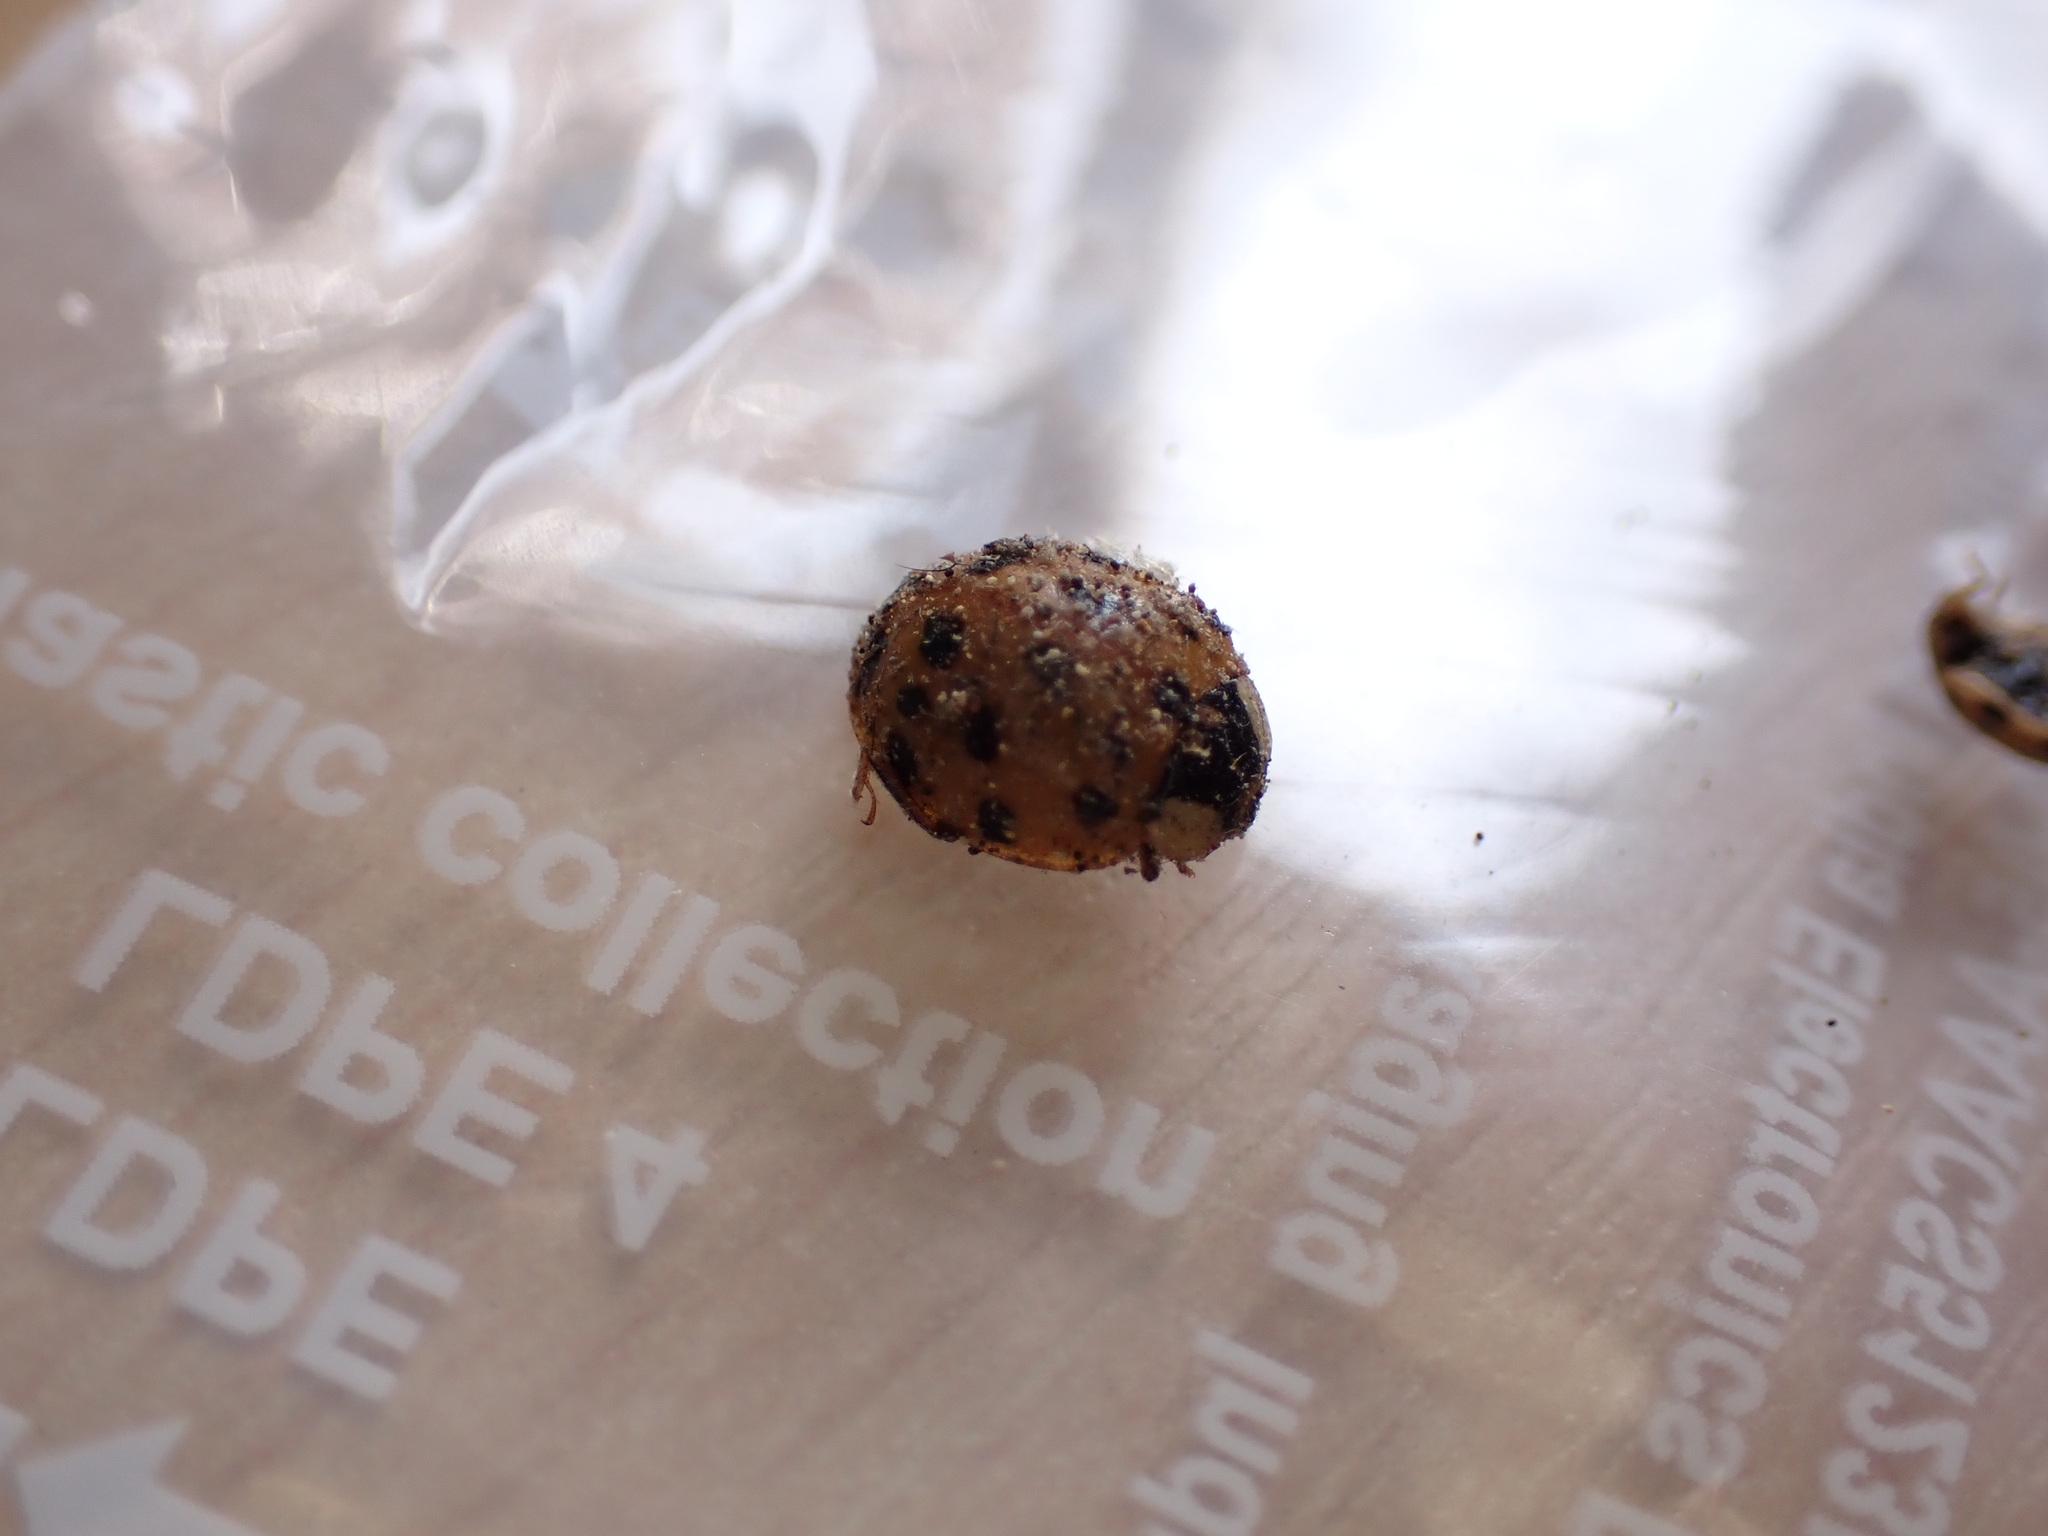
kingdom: Animalia
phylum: Arthropoda
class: Insecta
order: Coleoptera
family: Coccinellidae
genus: Harmonia
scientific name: Harmonia axyridis
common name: Harlequin ladybird
